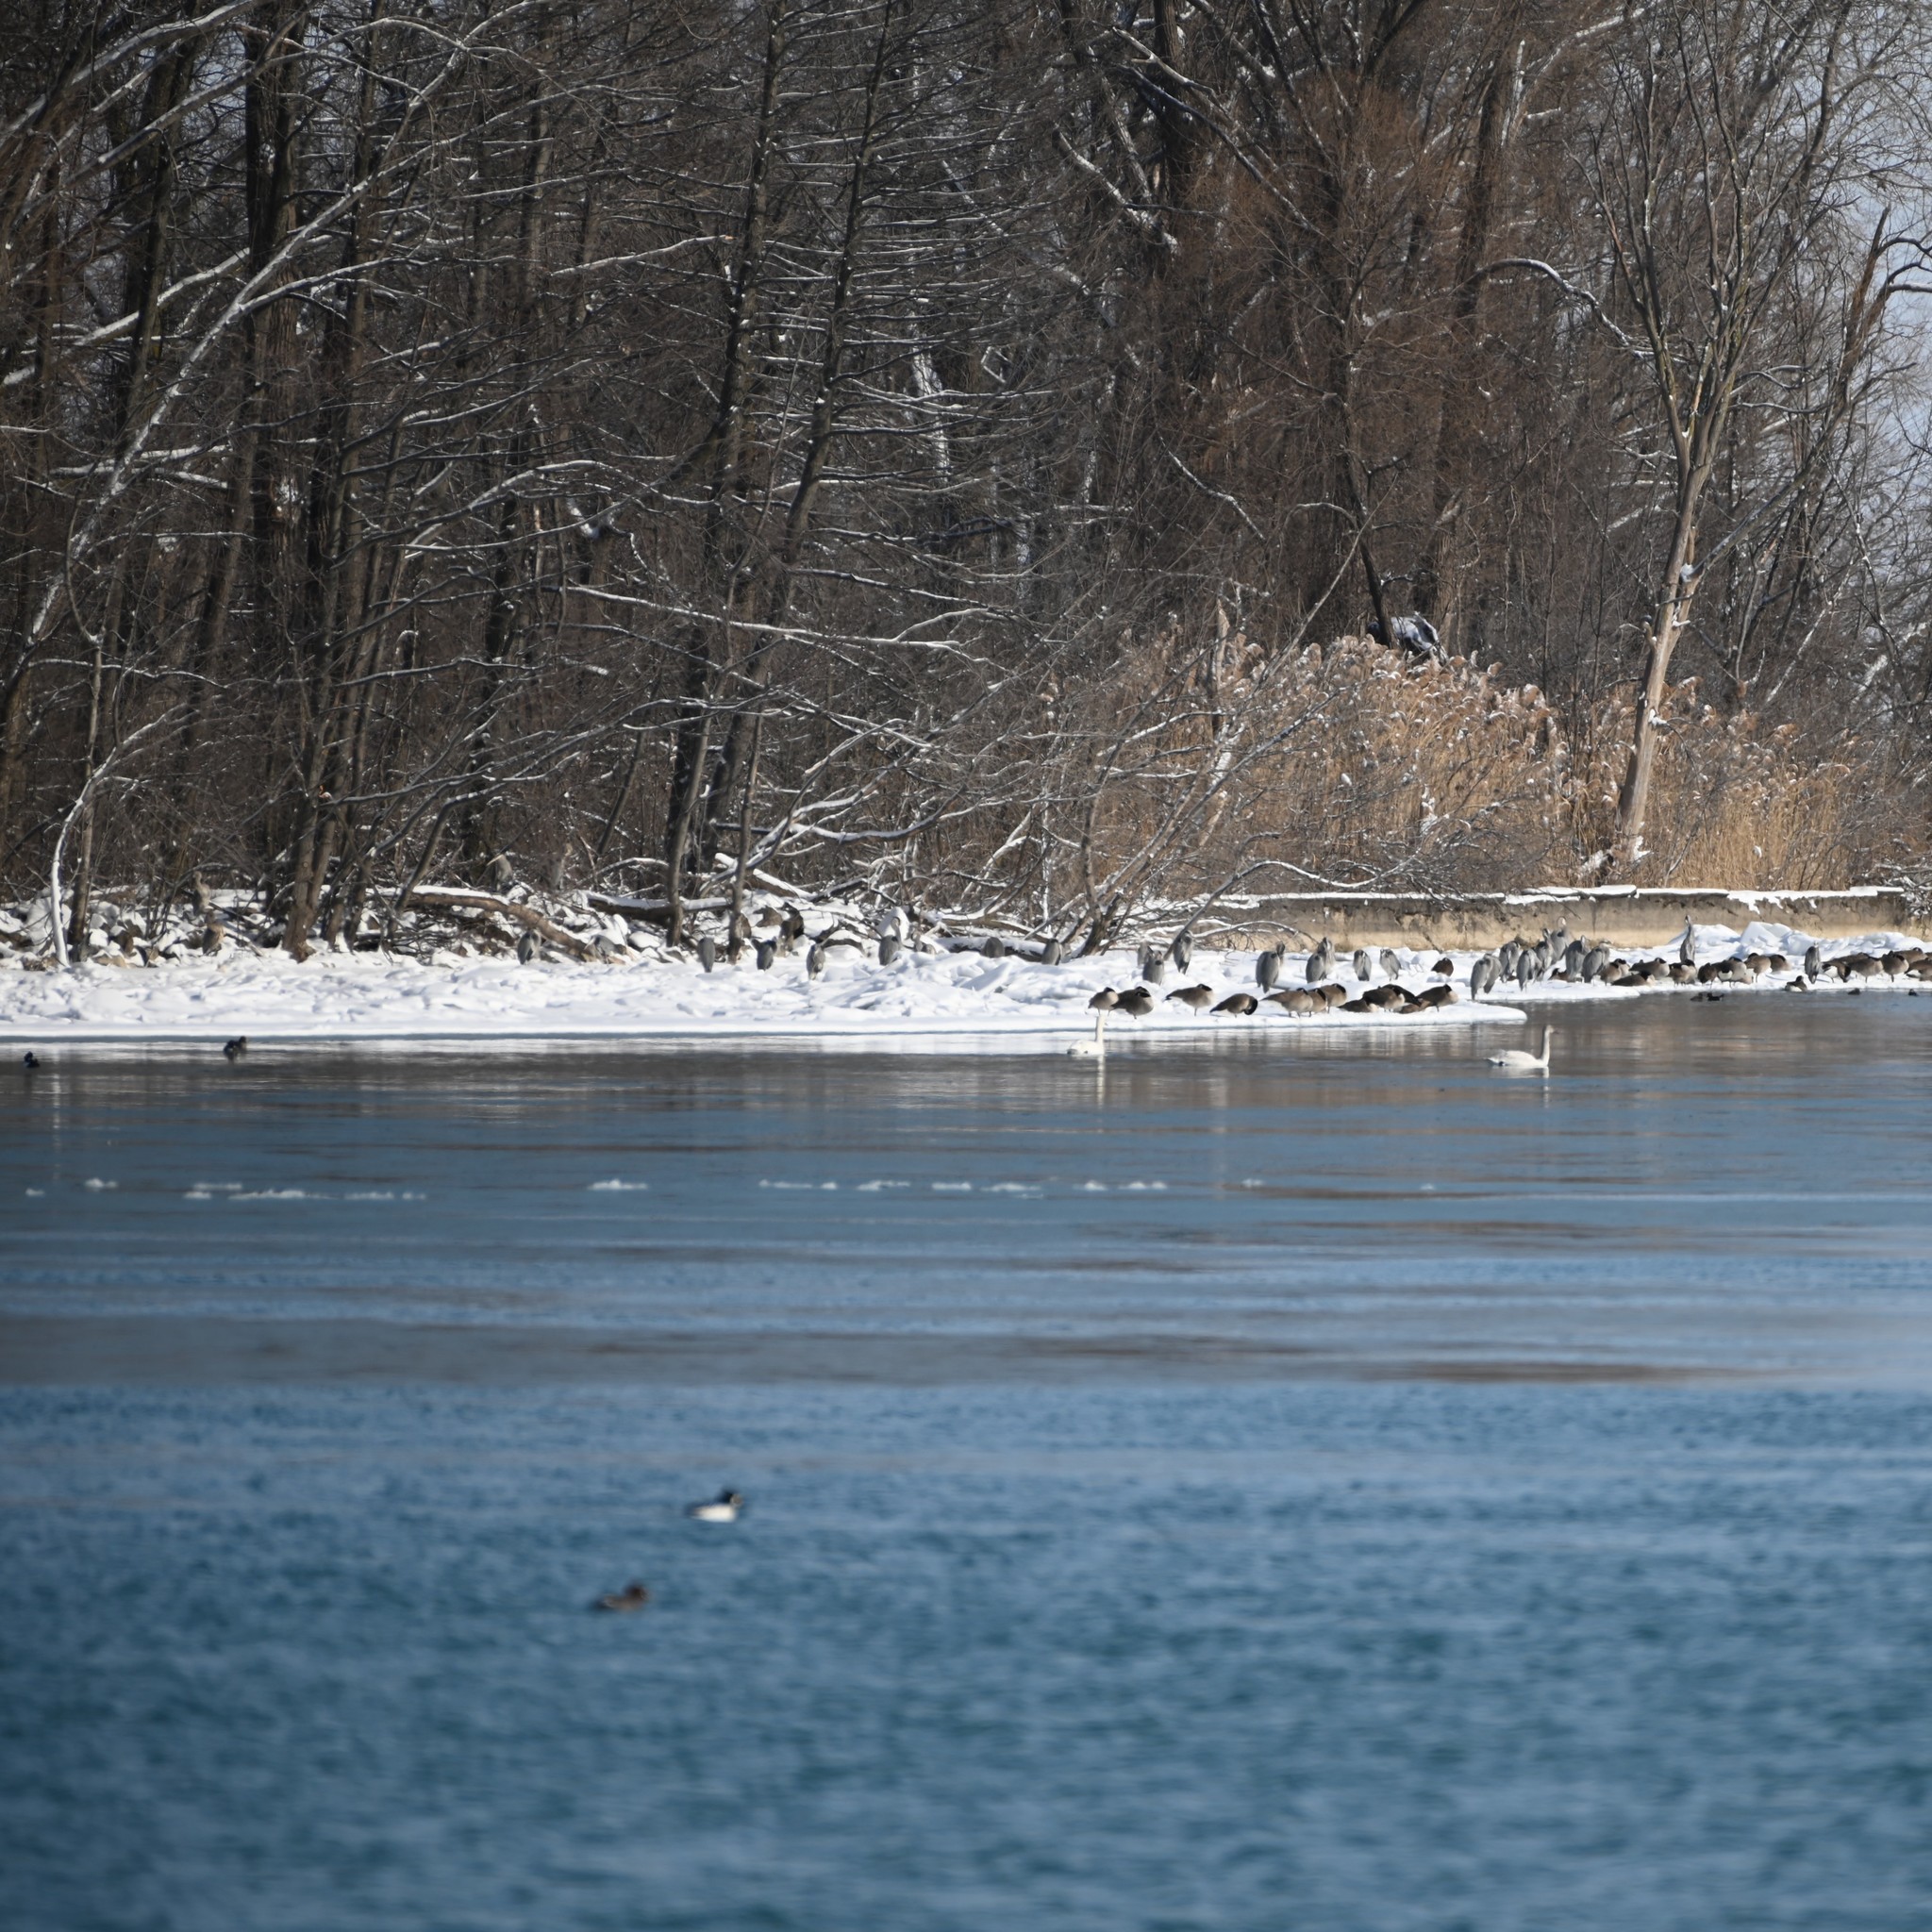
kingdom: Animalia
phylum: Chordata
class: Aves
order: Pelecaniformes
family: Ardeidae
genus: Ardea
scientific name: Ardea herodias
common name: Great blue heron
